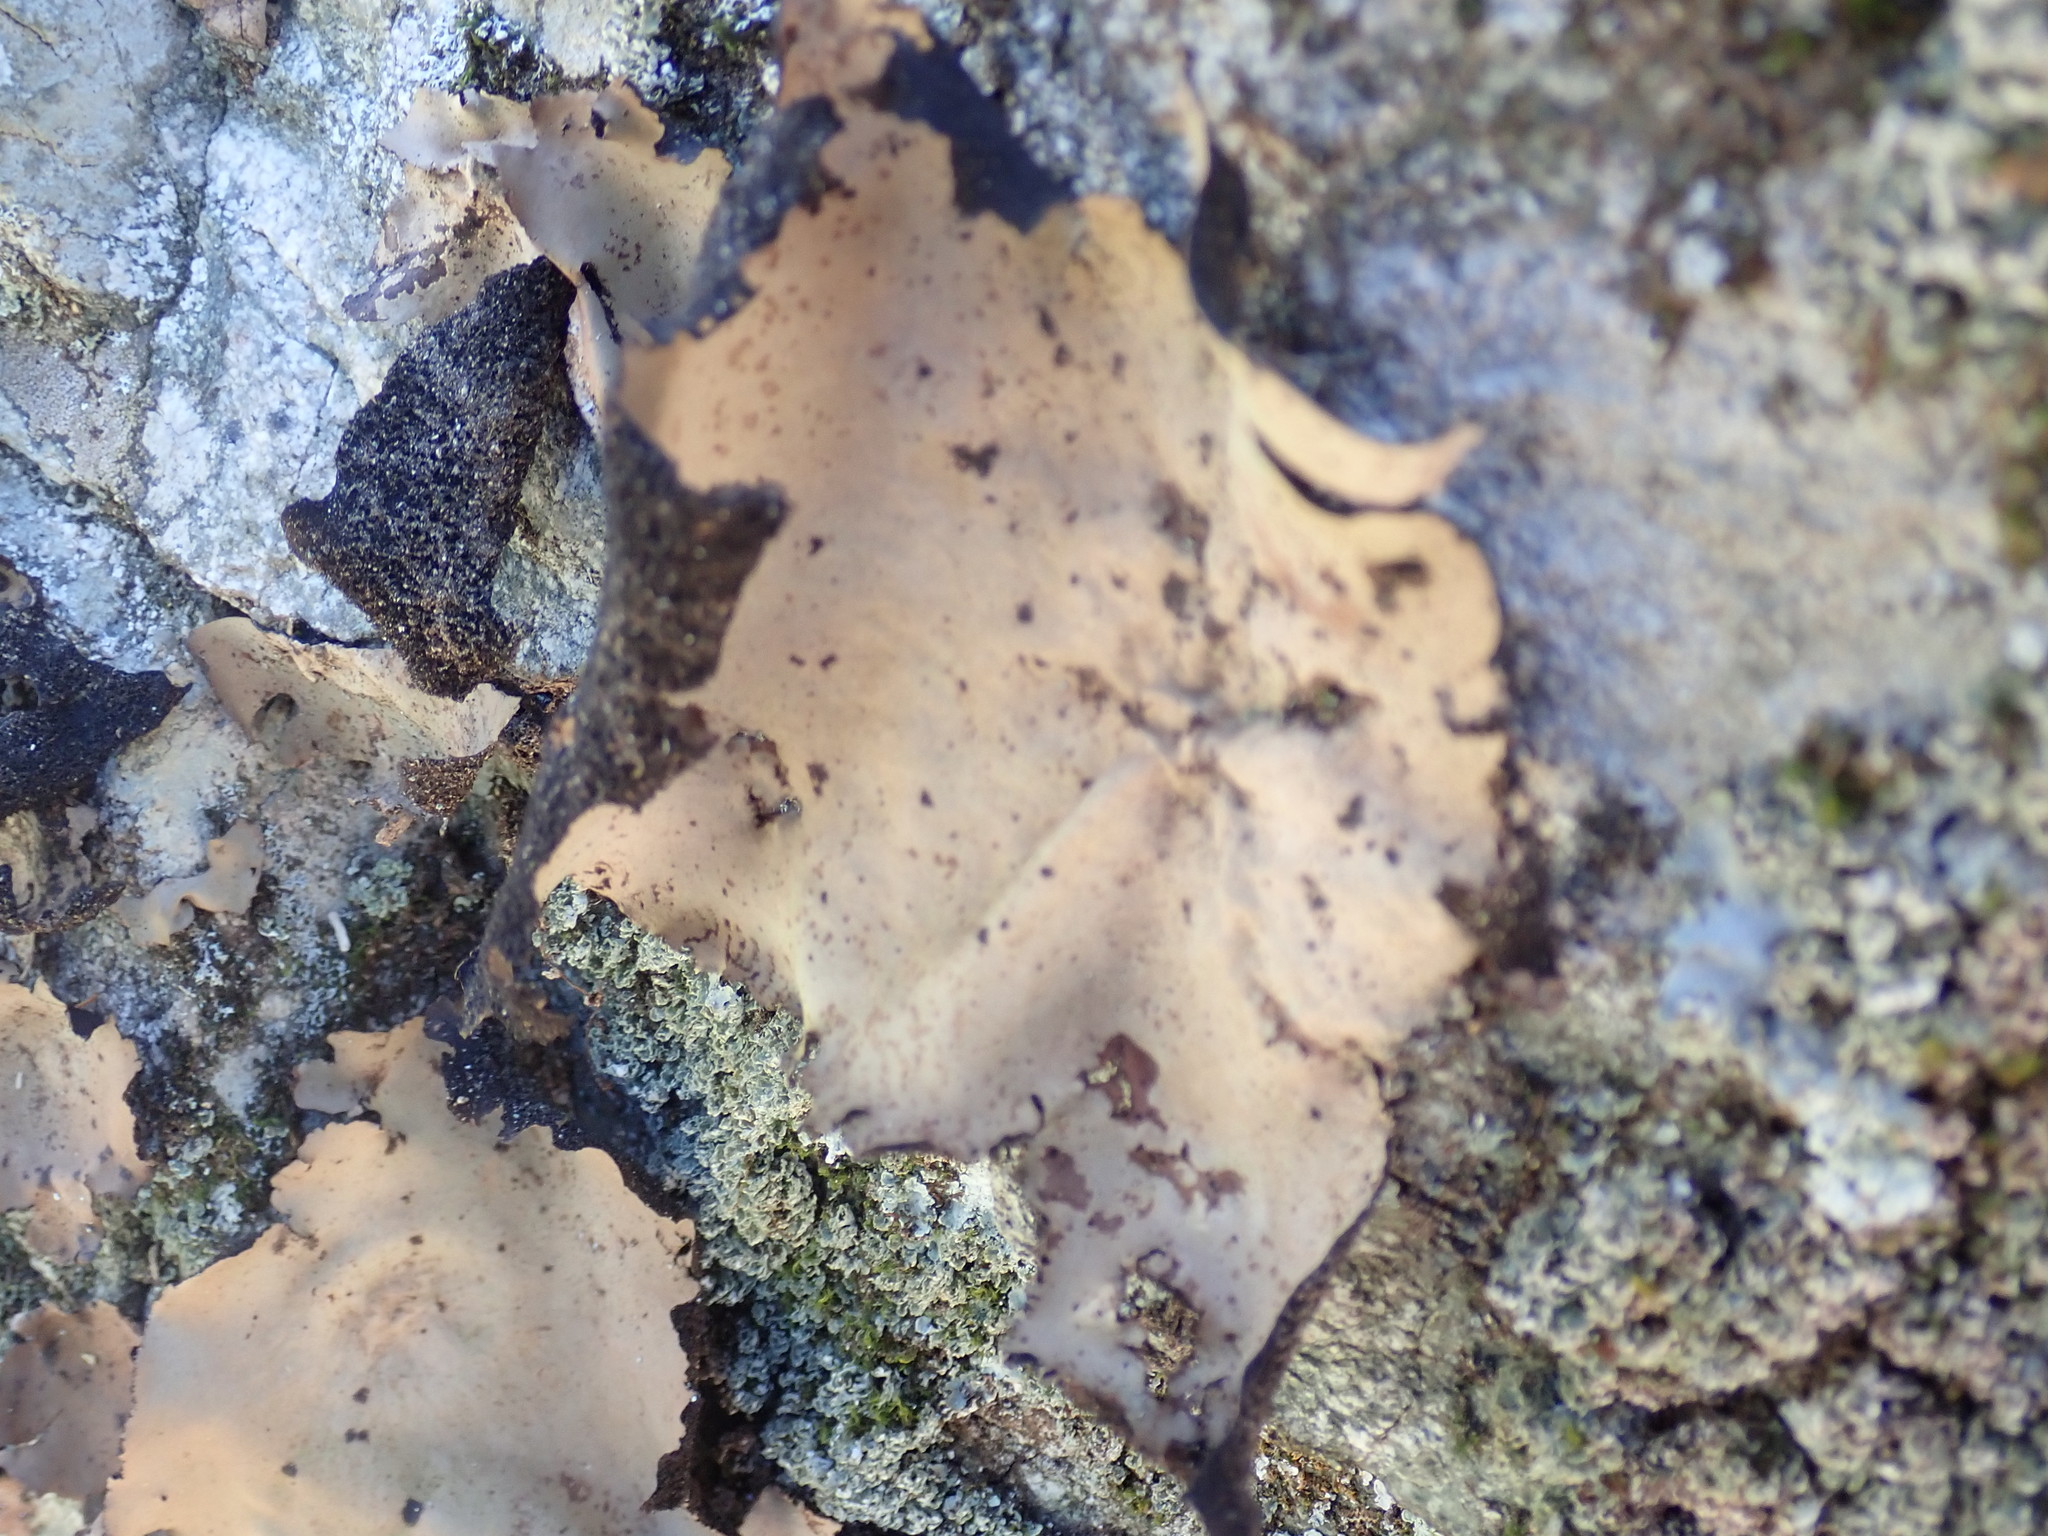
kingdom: Fungi
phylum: Ascomycota
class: Lecanoromycetes
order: Umbilicariales
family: Umbilicariaceae
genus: Umbilicaria
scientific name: Umbilicaria mammulata
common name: Smooth rock tripe
